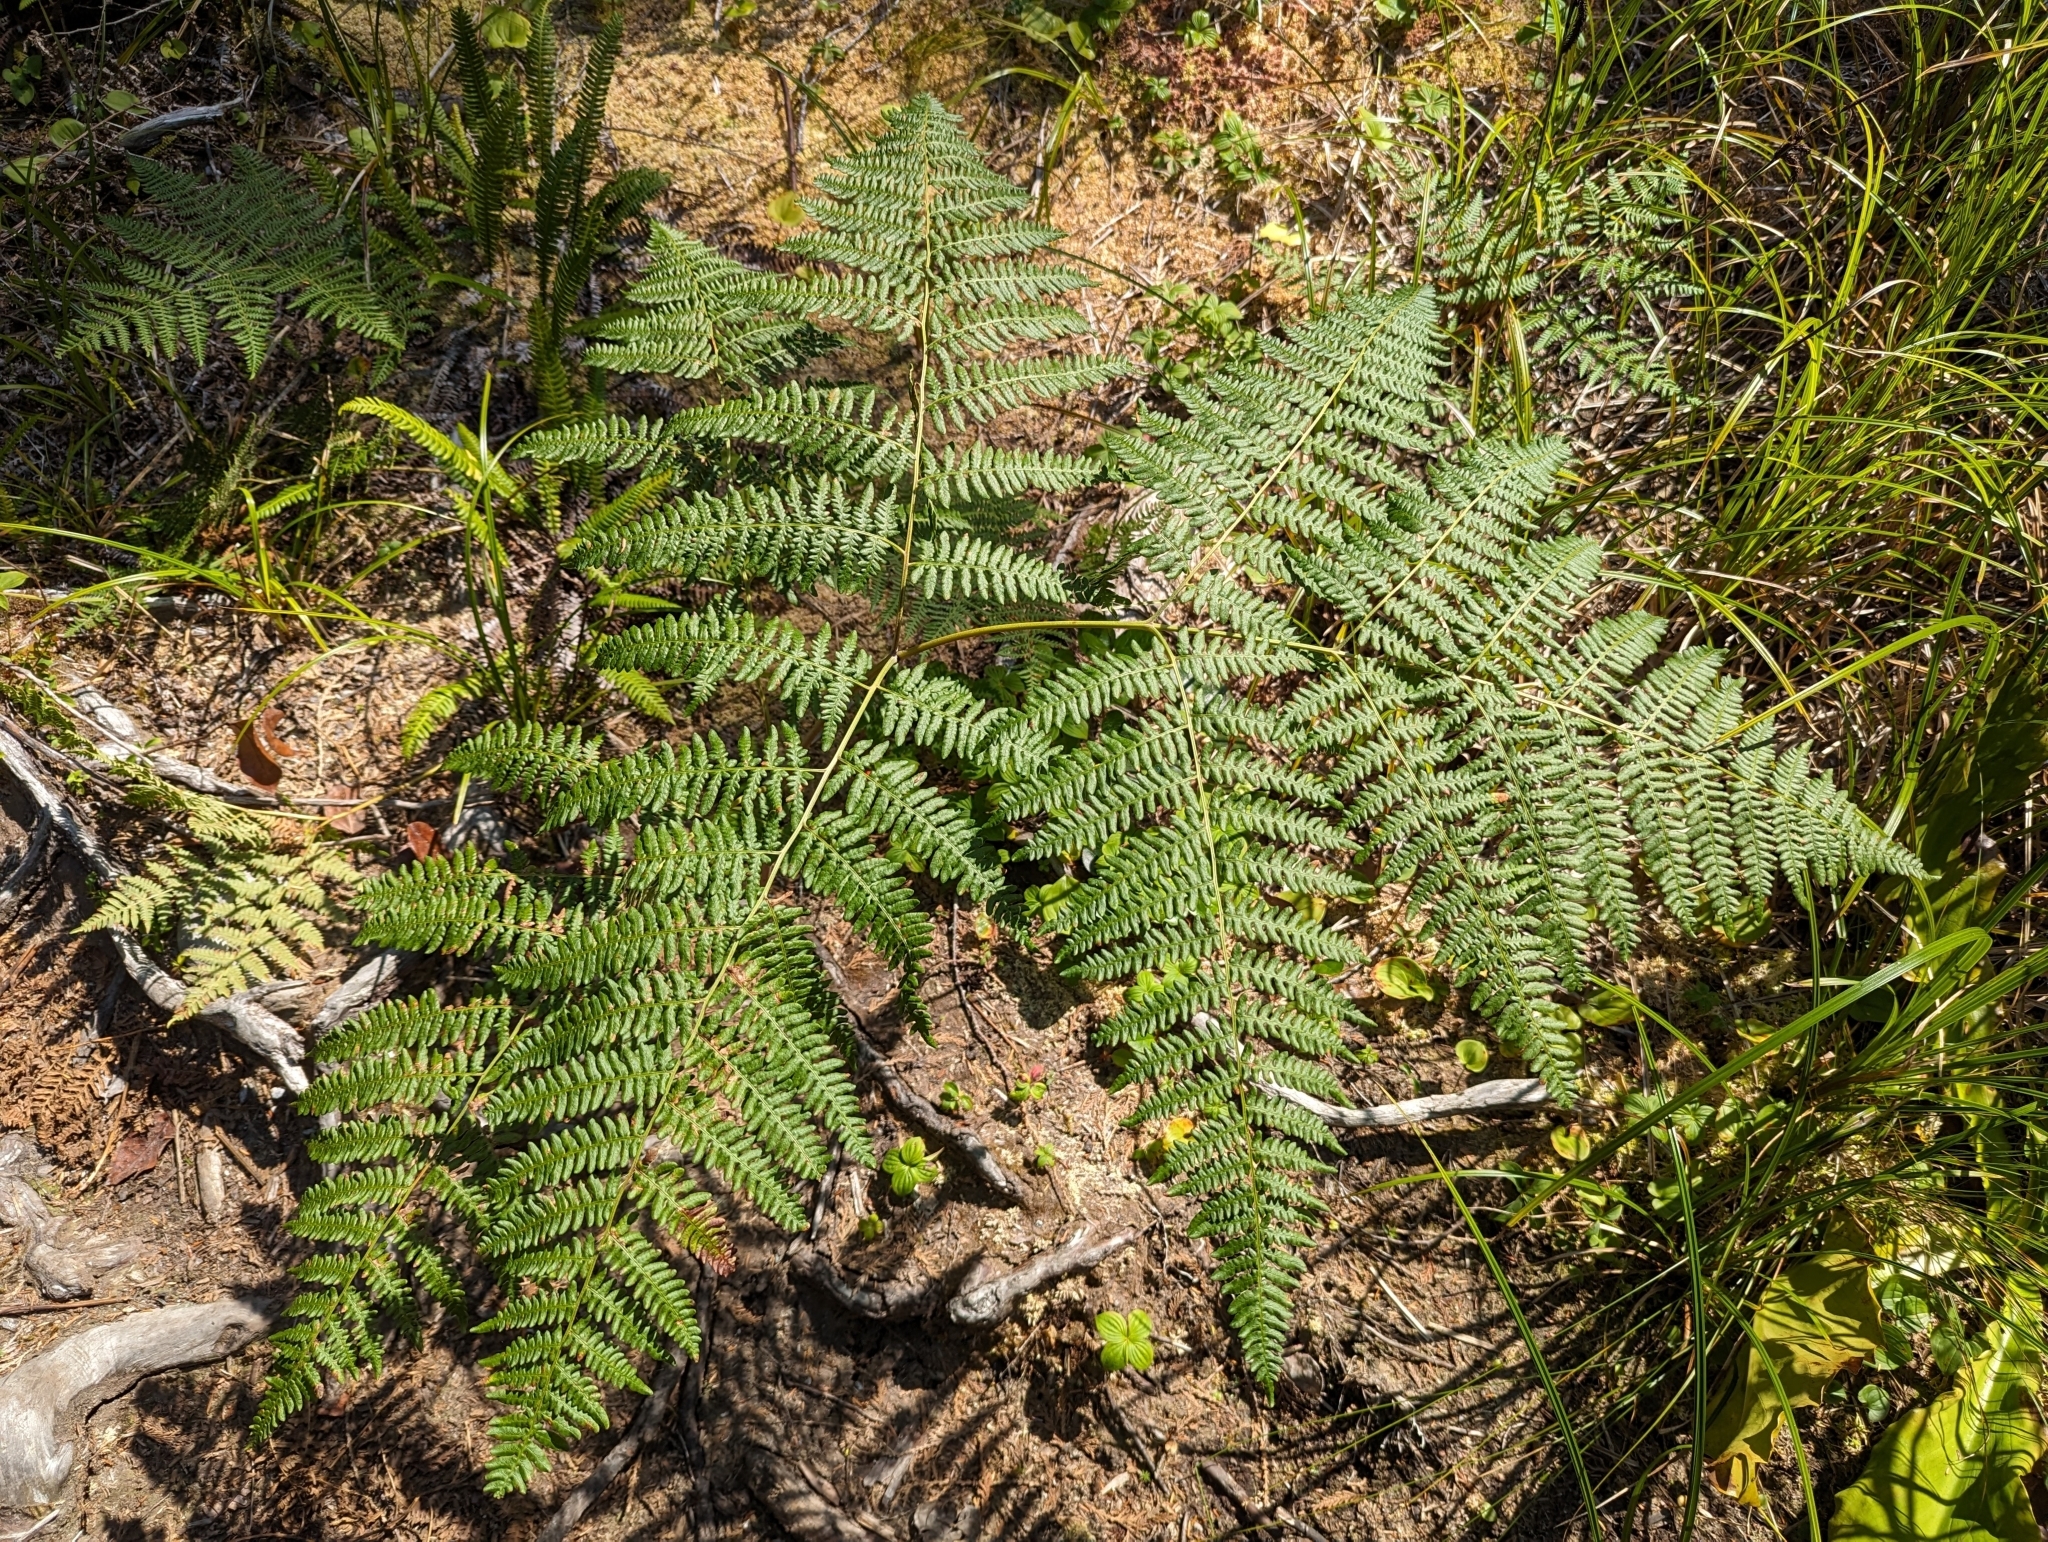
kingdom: Plantae
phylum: Tracheophyta
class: Polypodiopsida
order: Polypodiales
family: Dennstaedtiaceae
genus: Pteridium
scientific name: Pteridium aquilinum
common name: Bracken
